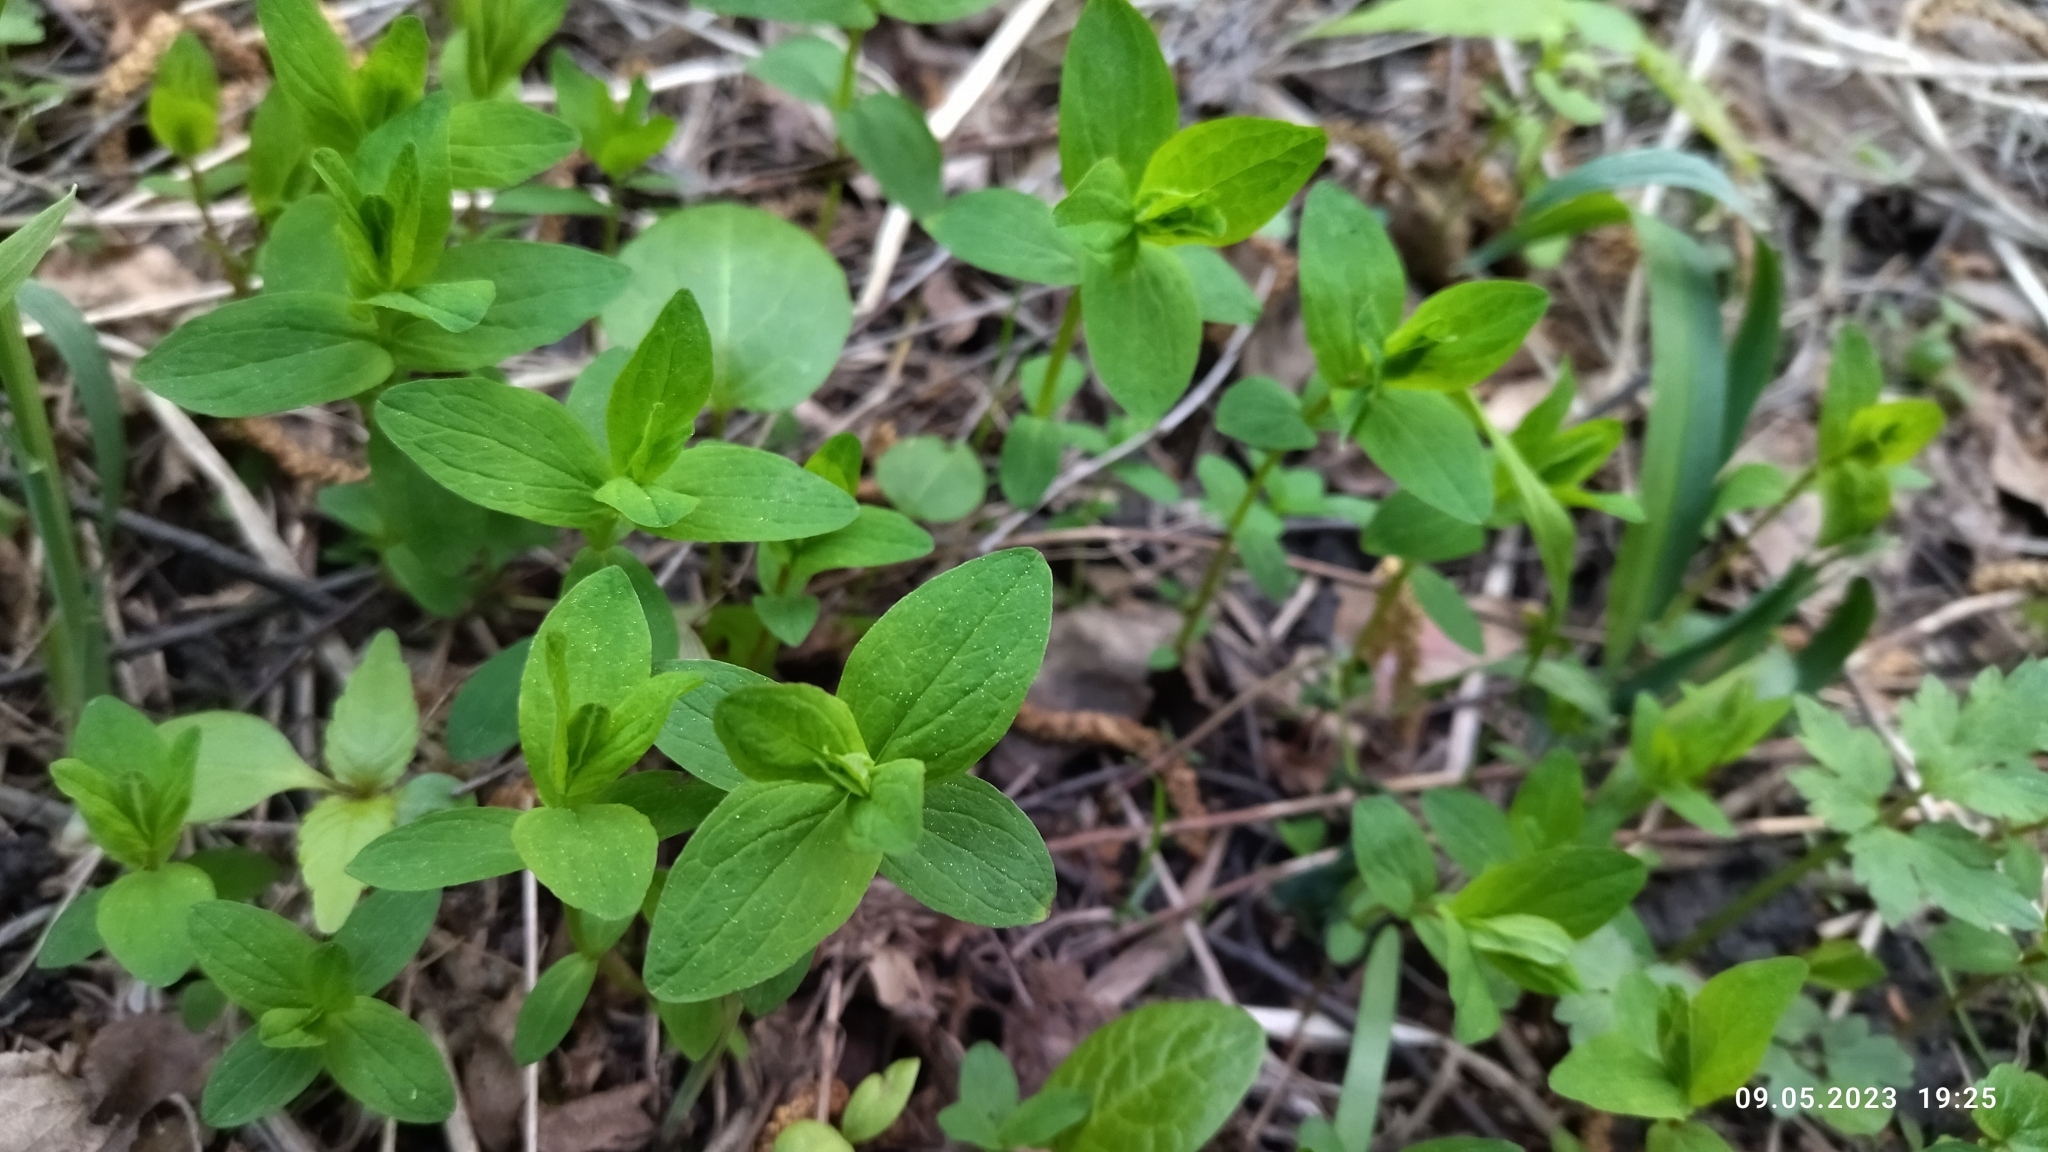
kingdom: Plantae
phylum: Tracheophyta
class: Magnoliopsida
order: Malpighiales
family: Hypericaceae
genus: Hypericum
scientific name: Hypericum maculatum
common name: Imperforate st. john's-wort
